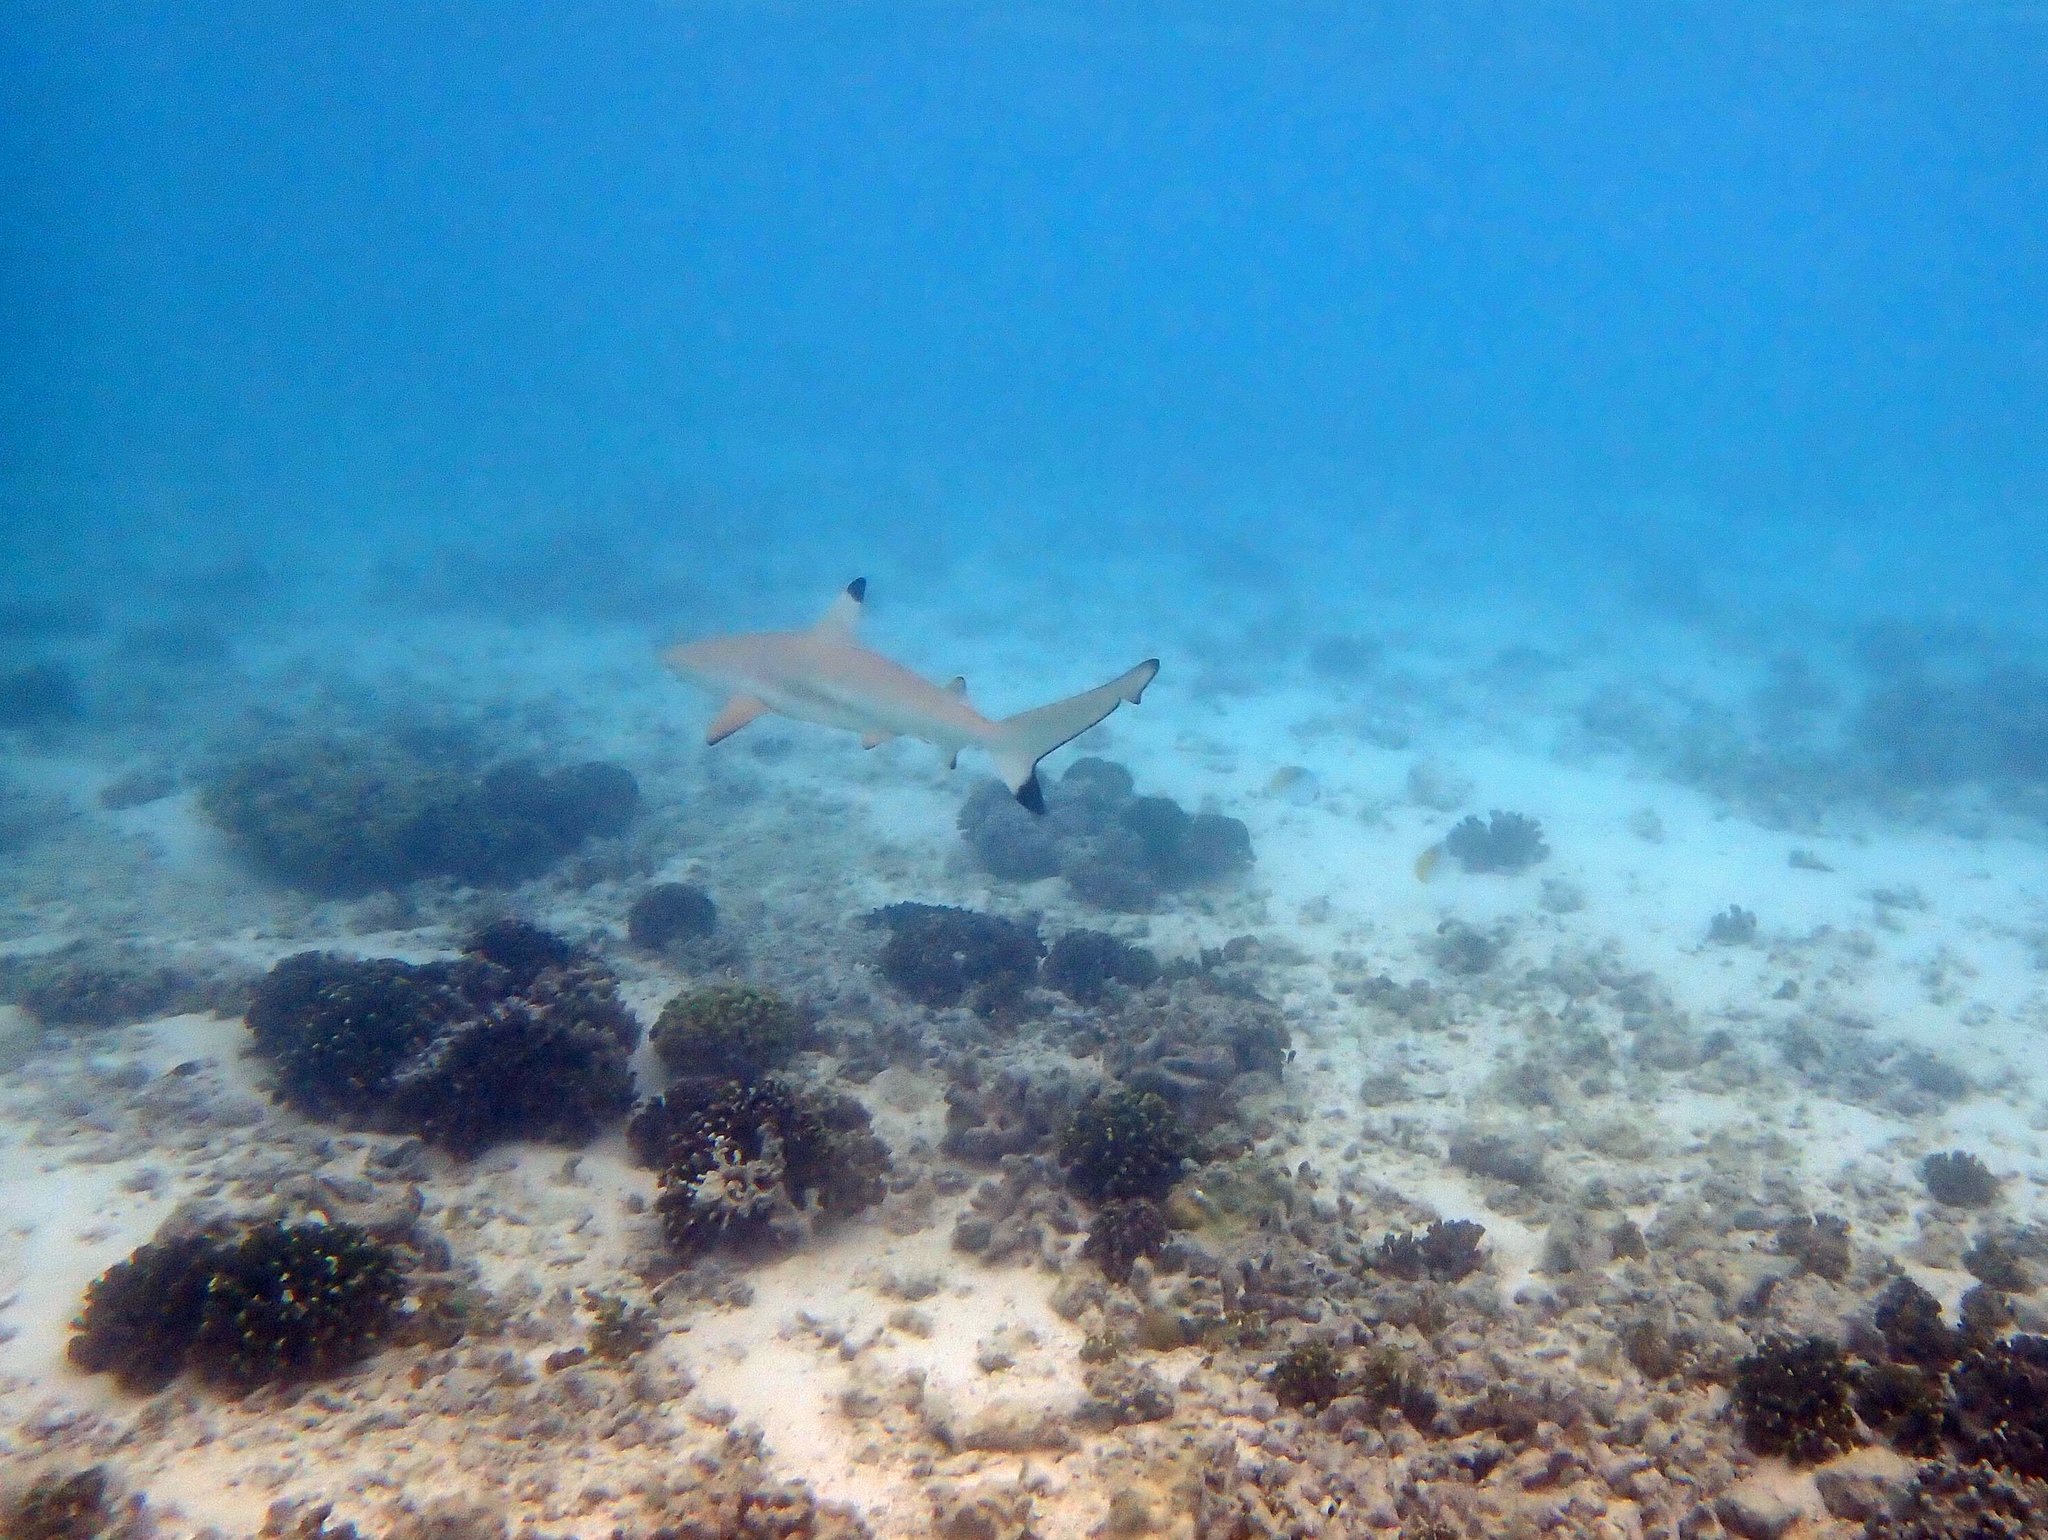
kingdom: Animalia
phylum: Chordata
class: Elasmobranchii
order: Carcharhiniformes
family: Carcharhinidae
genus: Carcharhinus
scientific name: Carcharhinus melanopterus
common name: Blacktip reef shark
